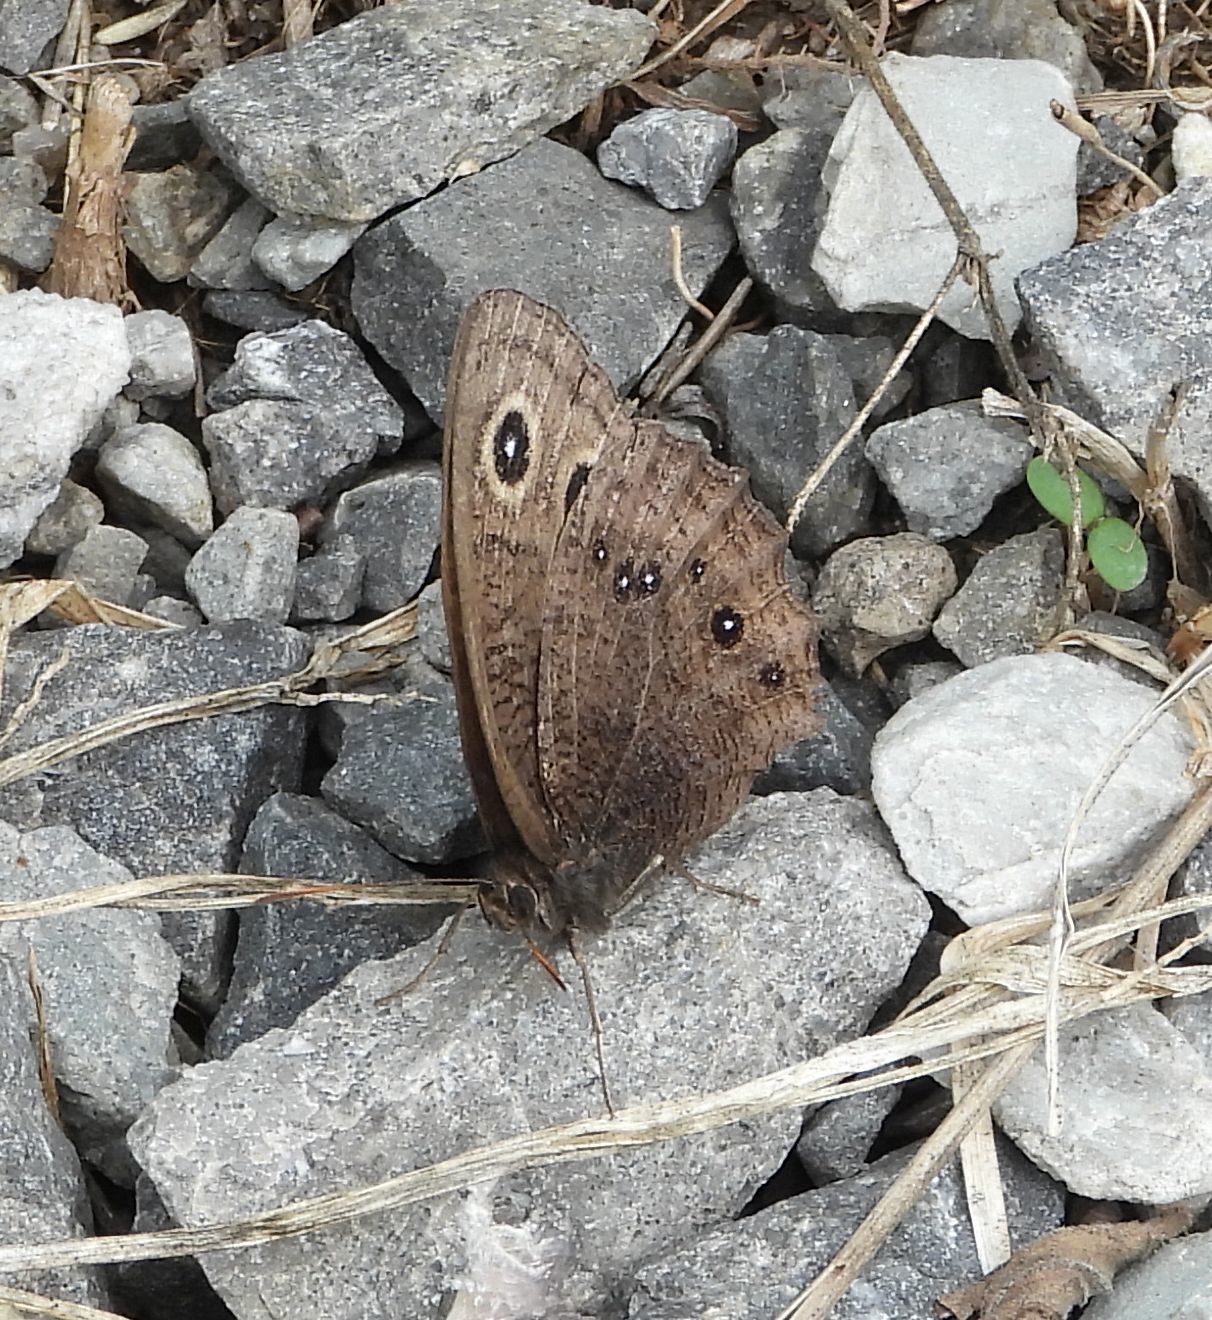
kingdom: Animalia
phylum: Arthropoda
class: Insecta
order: Lepidoptera
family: Nymphalidae
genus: Cercyonis
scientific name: Cercyonis pegala
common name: Common wood-nymph
